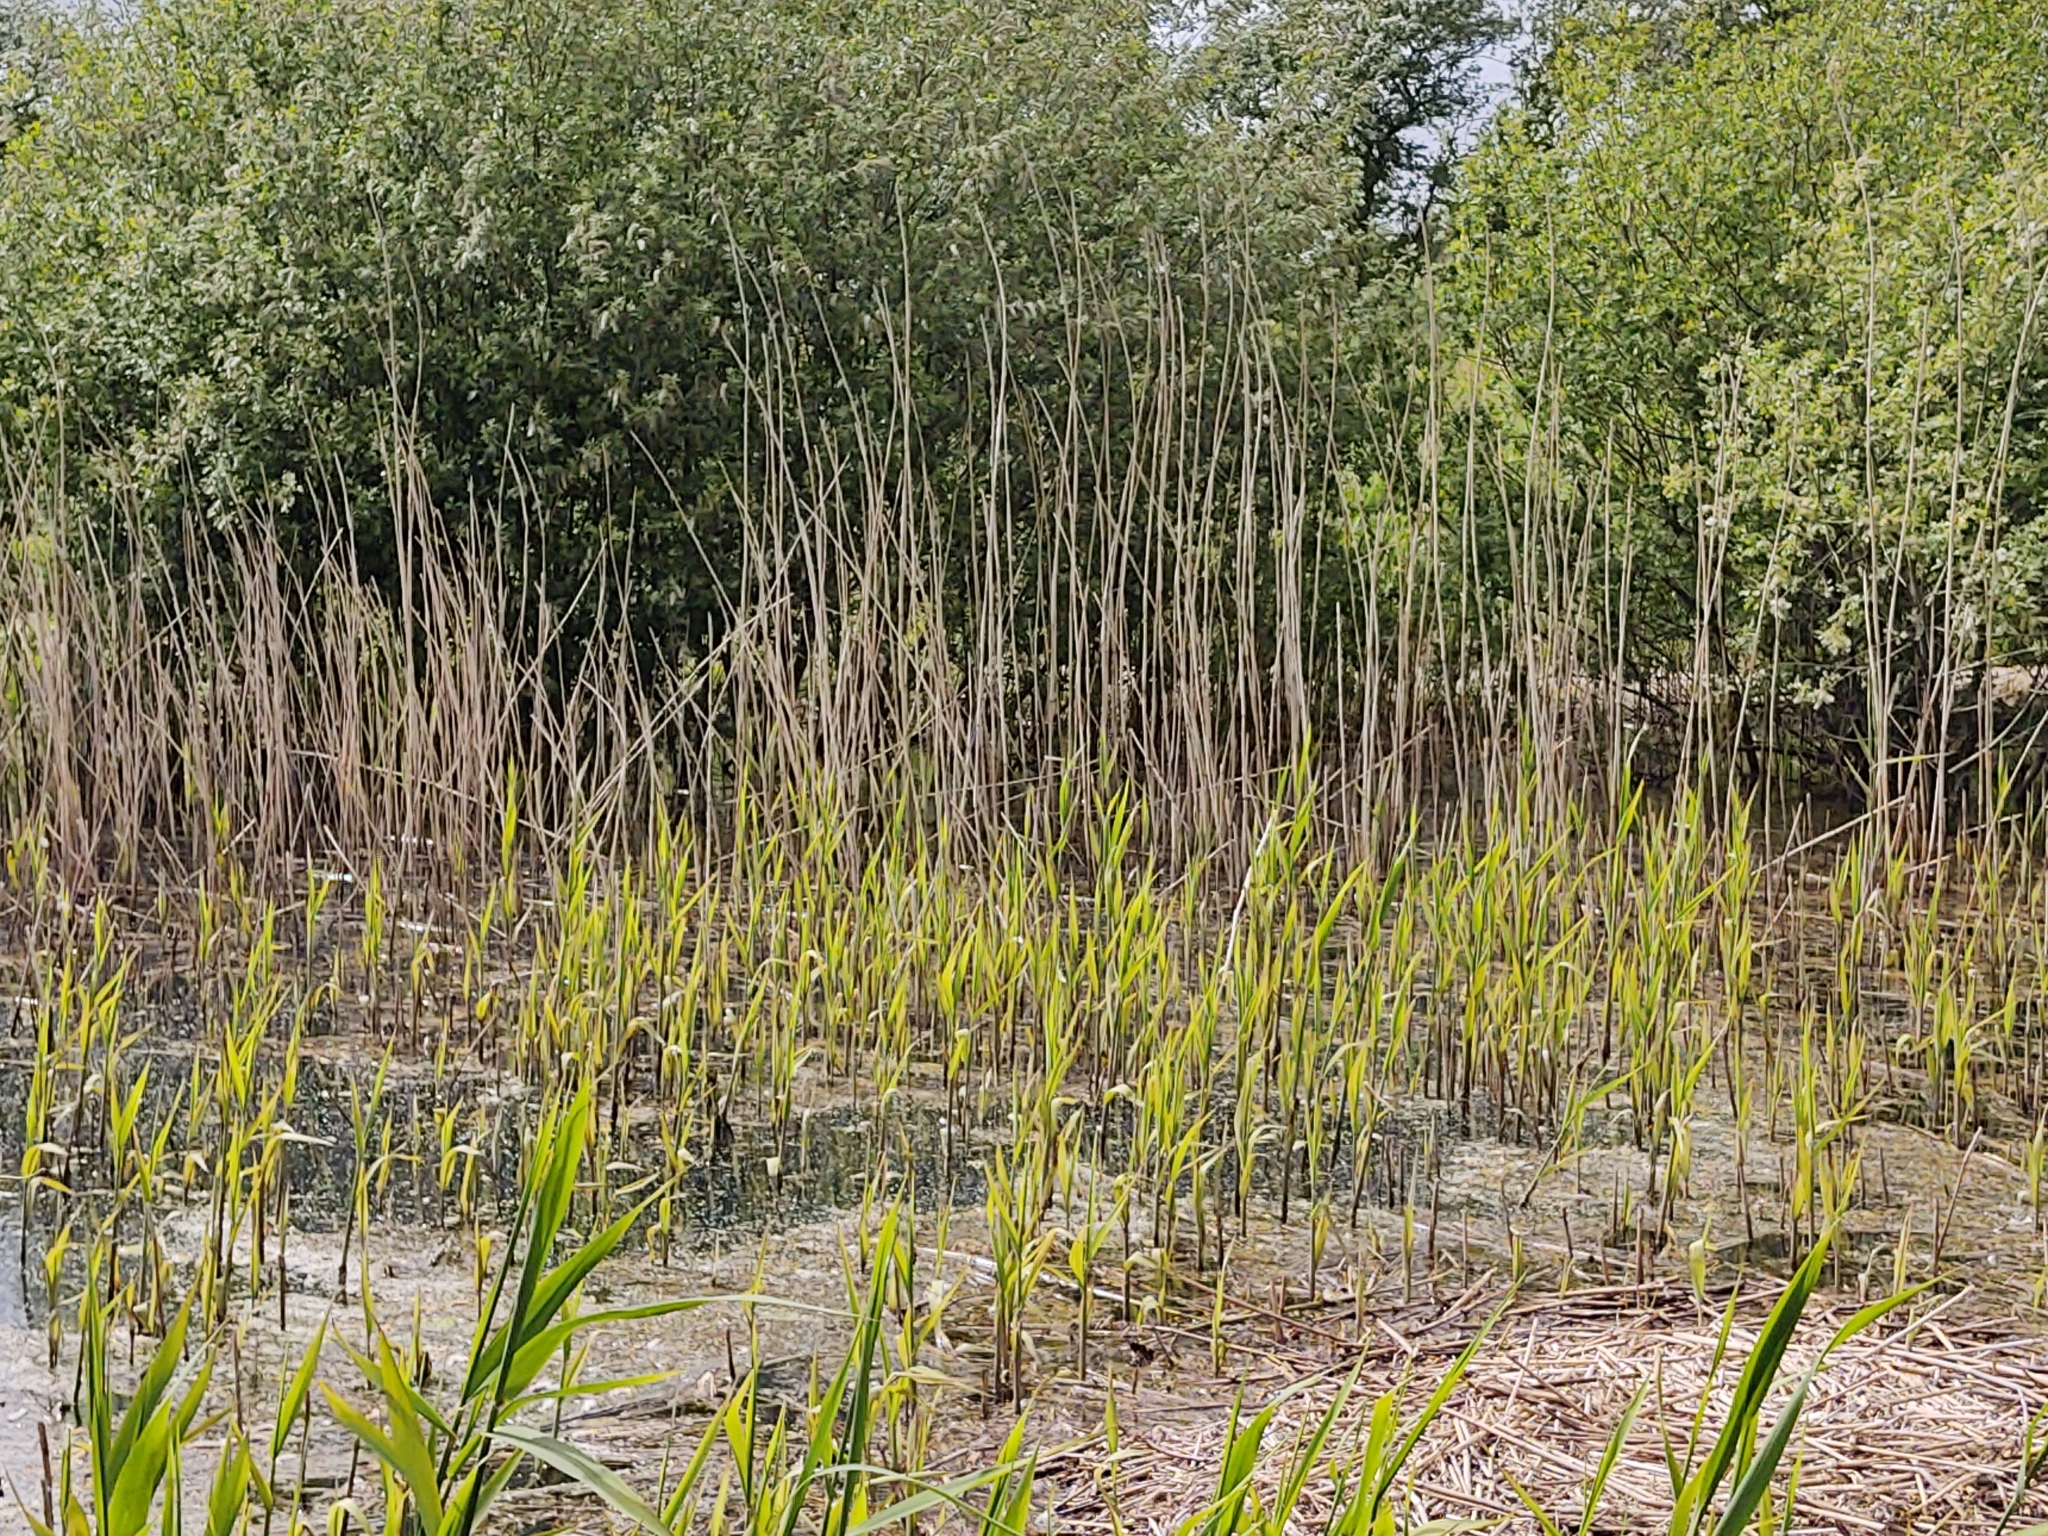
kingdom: Plantae
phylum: Tracheophyta
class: Liliopsida
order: Poales
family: Poaceae
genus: Phragmites
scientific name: Phragmites australis
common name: Common reed
